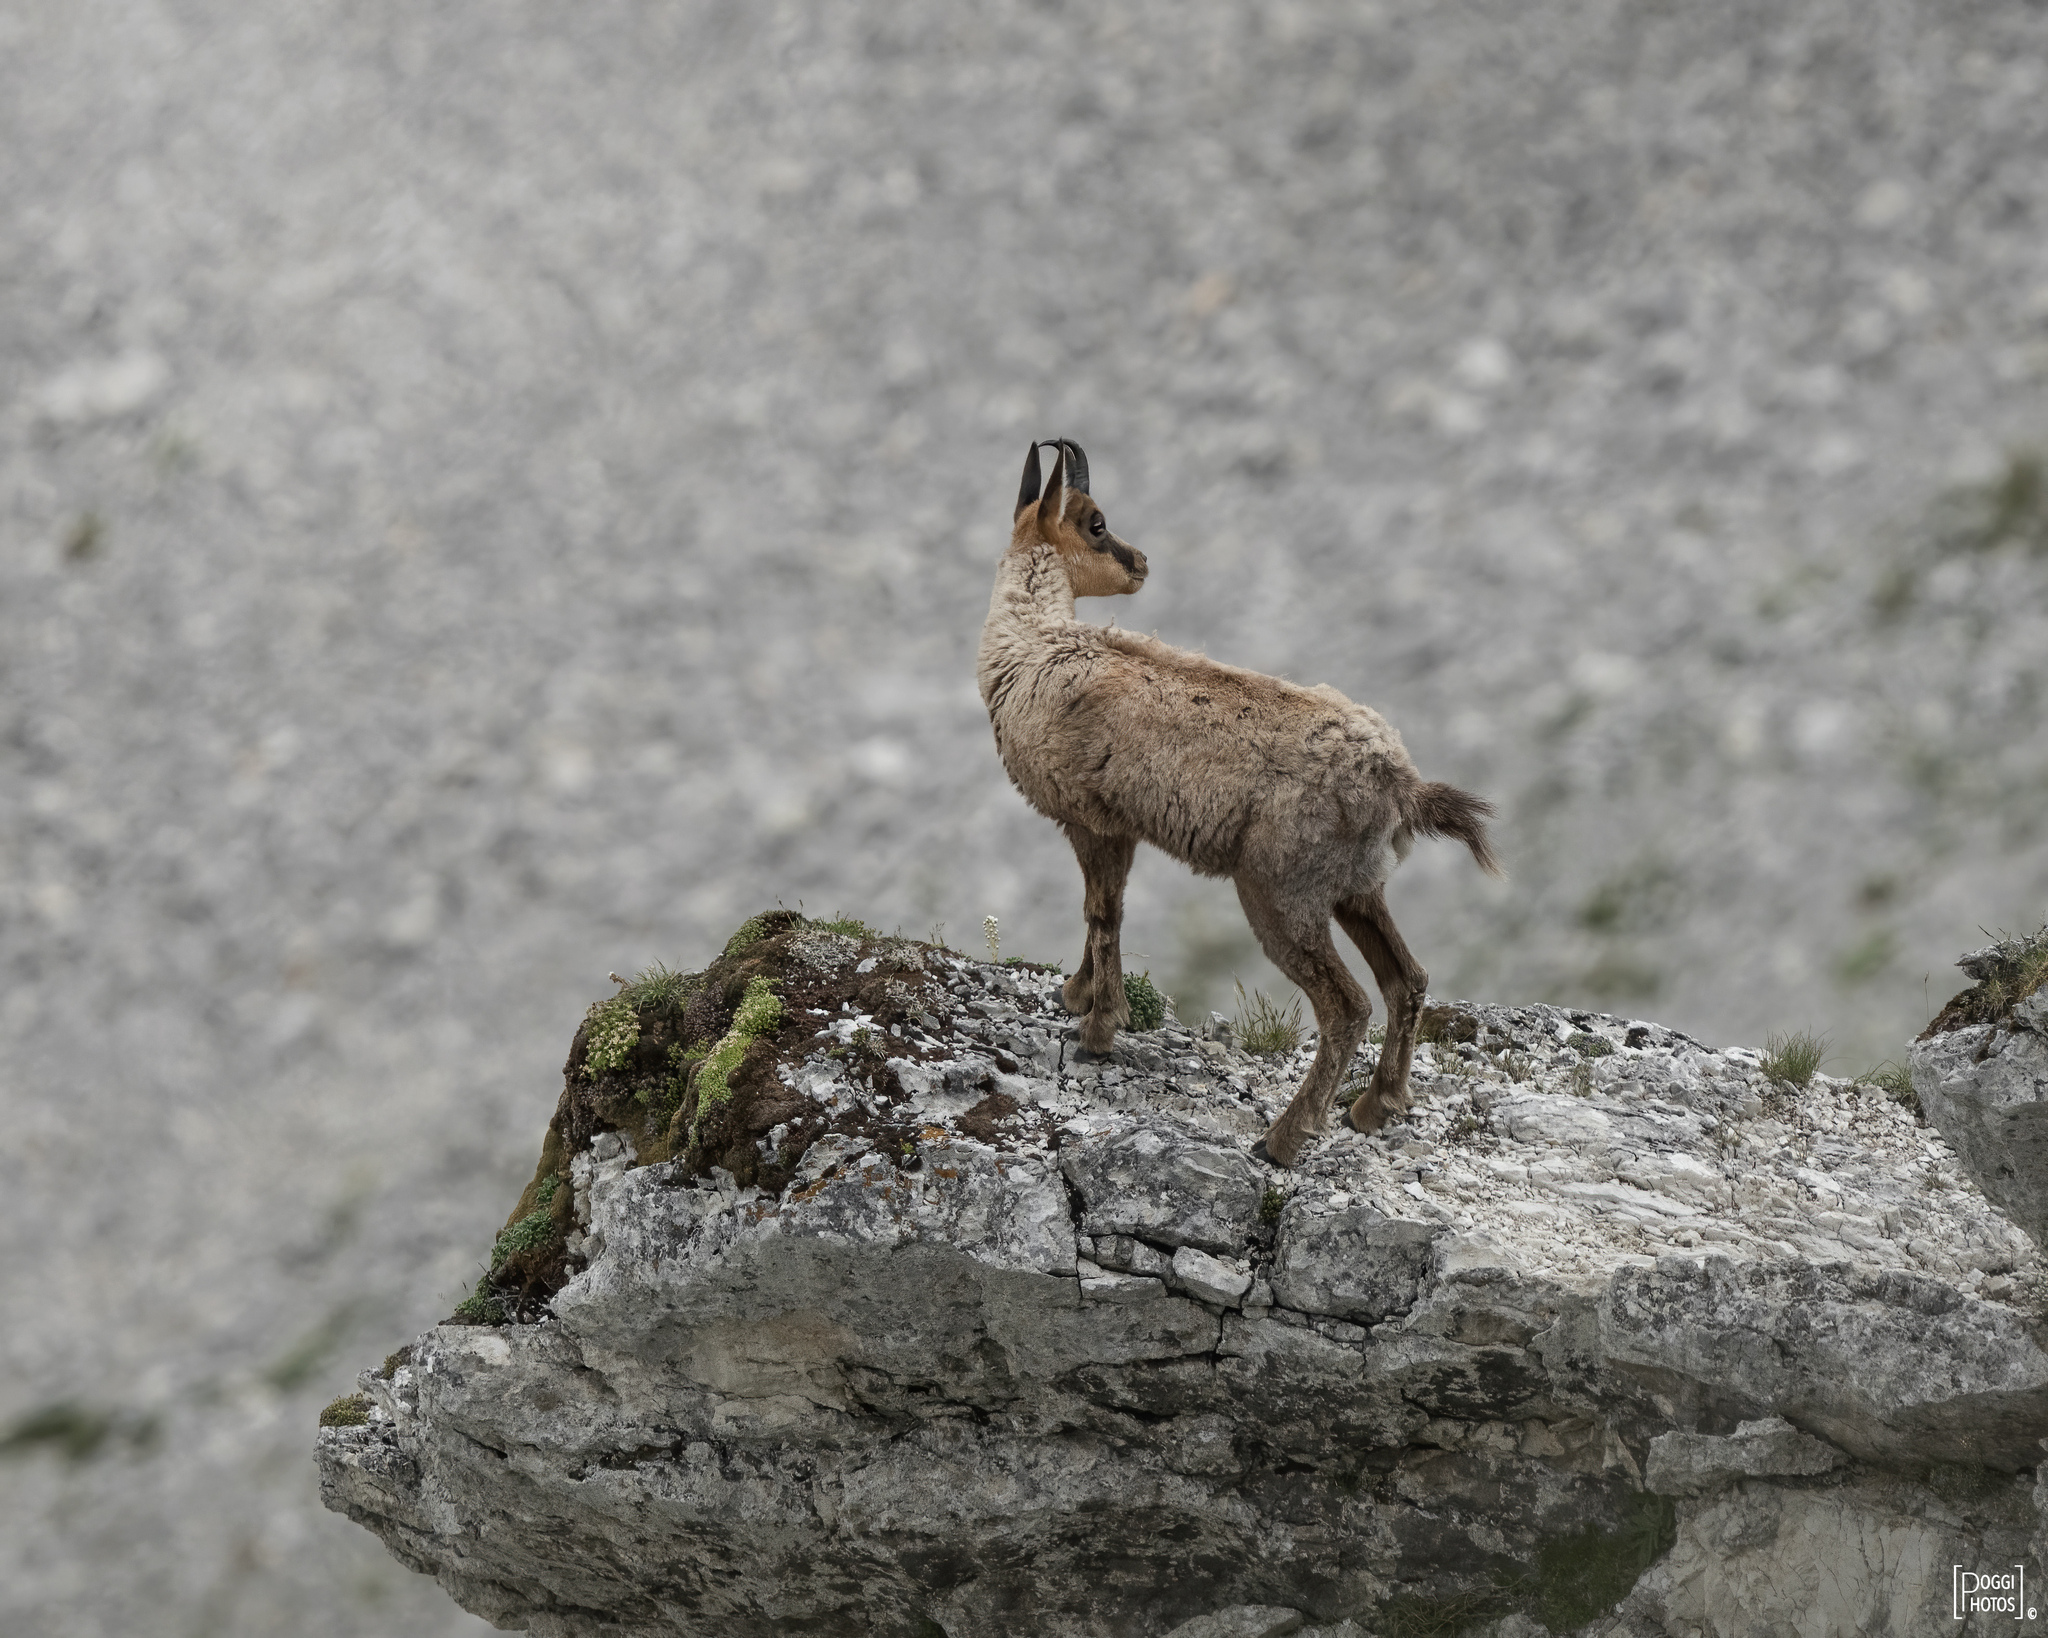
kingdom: Animalia
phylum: Chordata
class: Mammalia
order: Artiodactyla
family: Bovidae
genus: Rupicapra
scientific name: Rupicapra pyrenaica
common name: Pyrenean chamois
